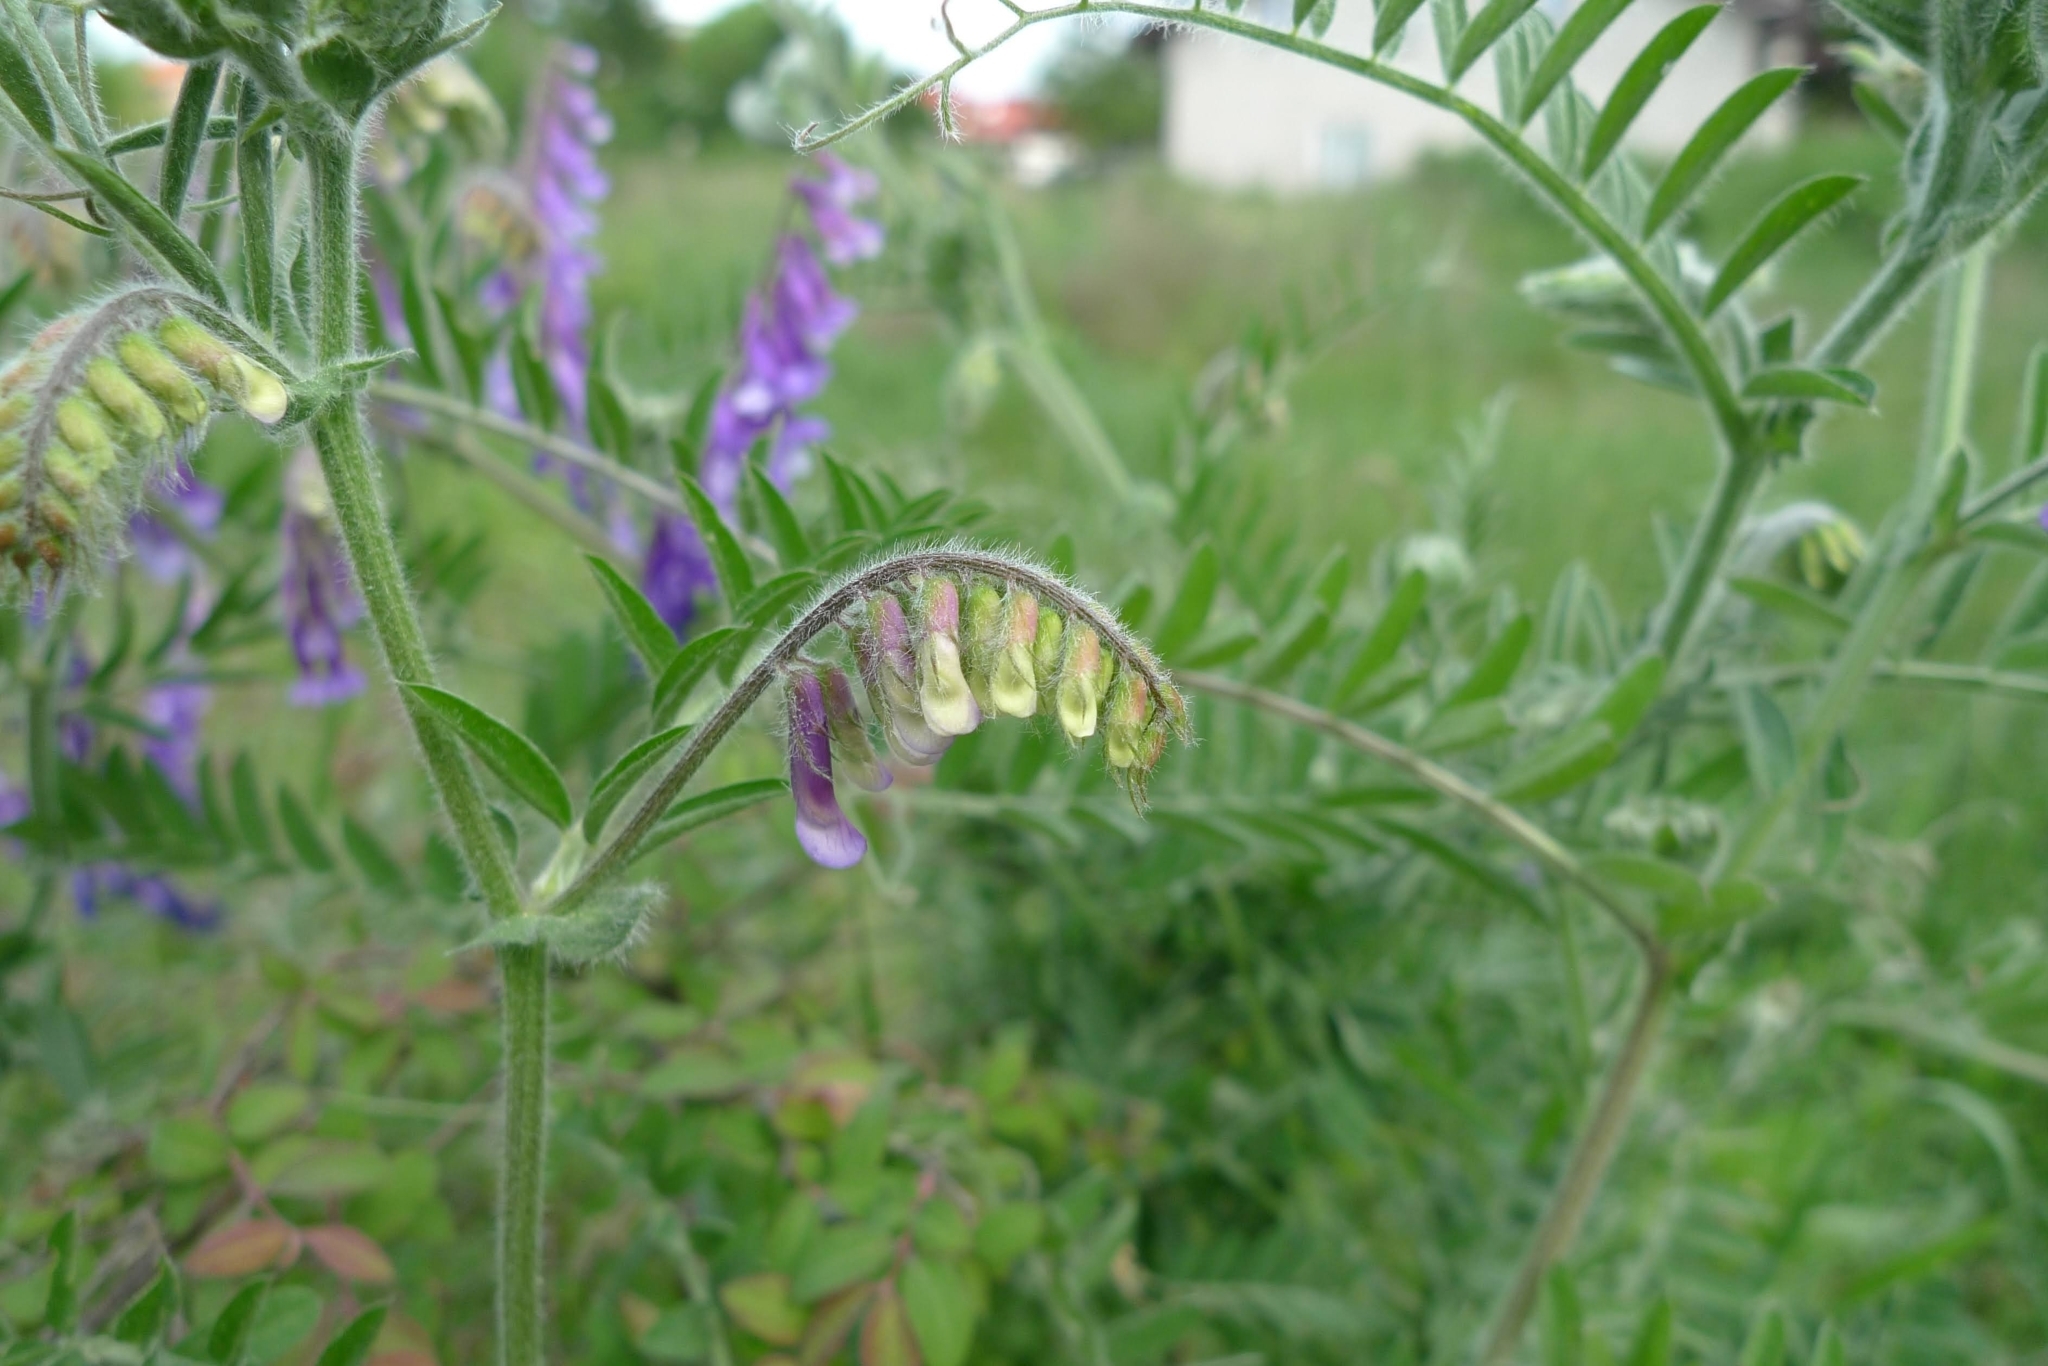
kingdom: Plantae
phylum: Tracheophyta
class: Magnoliopsida
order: Fabales
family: Fabaceae
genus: Vicia
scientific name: Vicia villosa
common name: Fodder vetch
